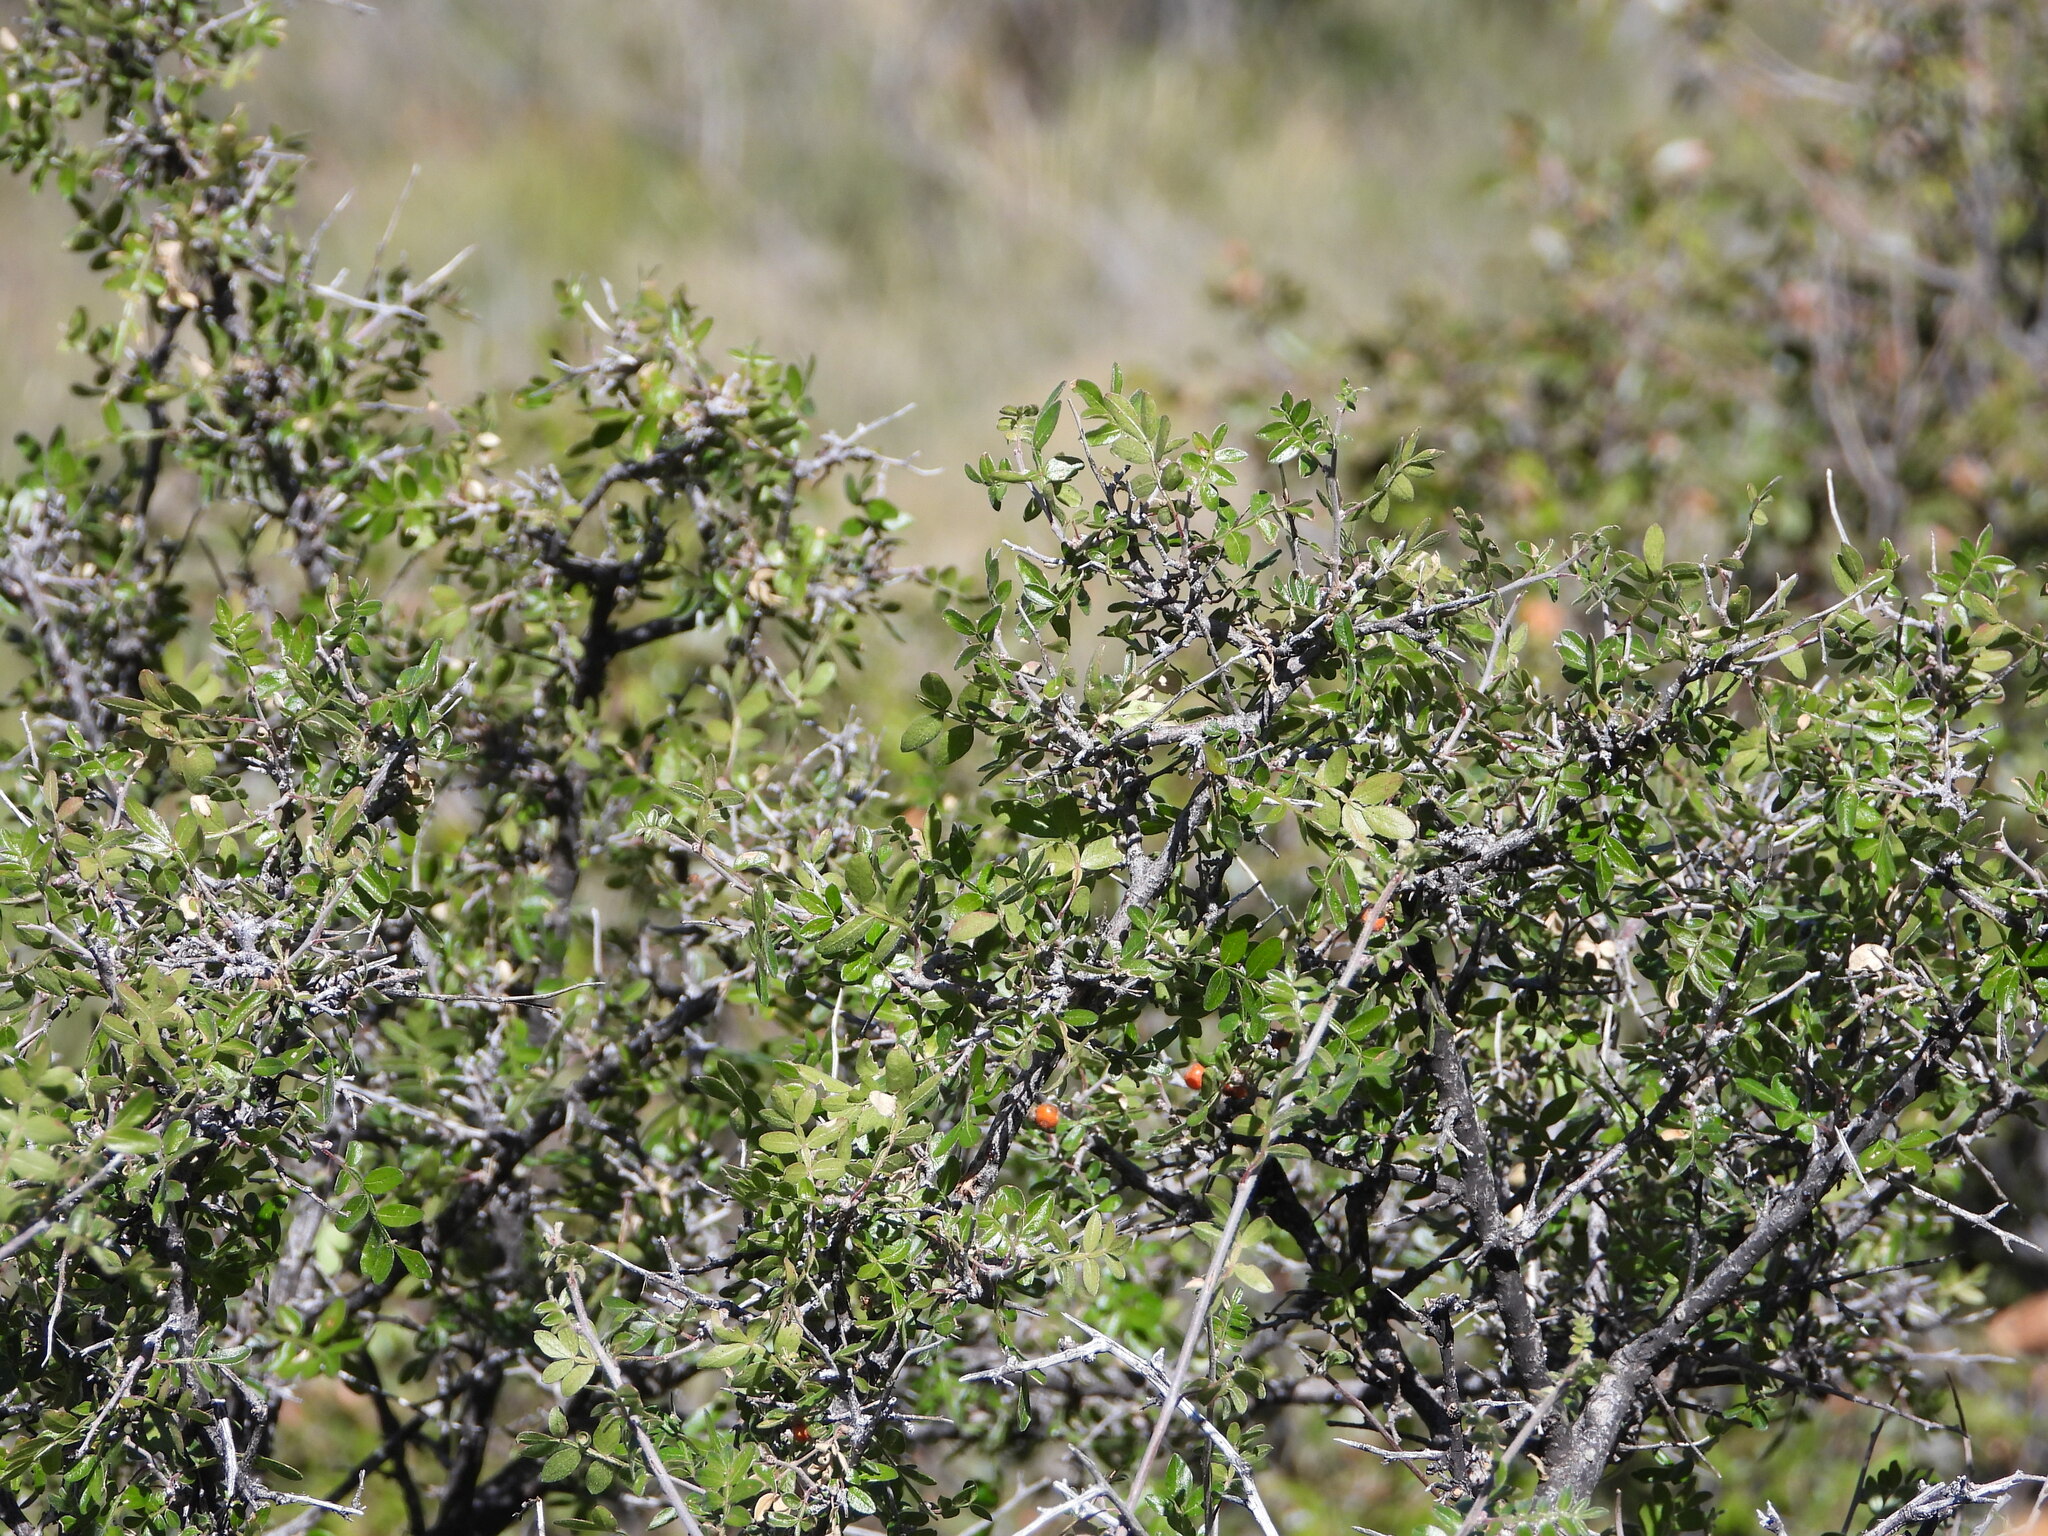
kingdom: Plantae
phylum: Tracheophyta
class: Magnoliopsida
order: Sapindales
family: Anacardiaceae
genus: Rhus
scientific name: Rhus microphylla
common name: Desert sumac
